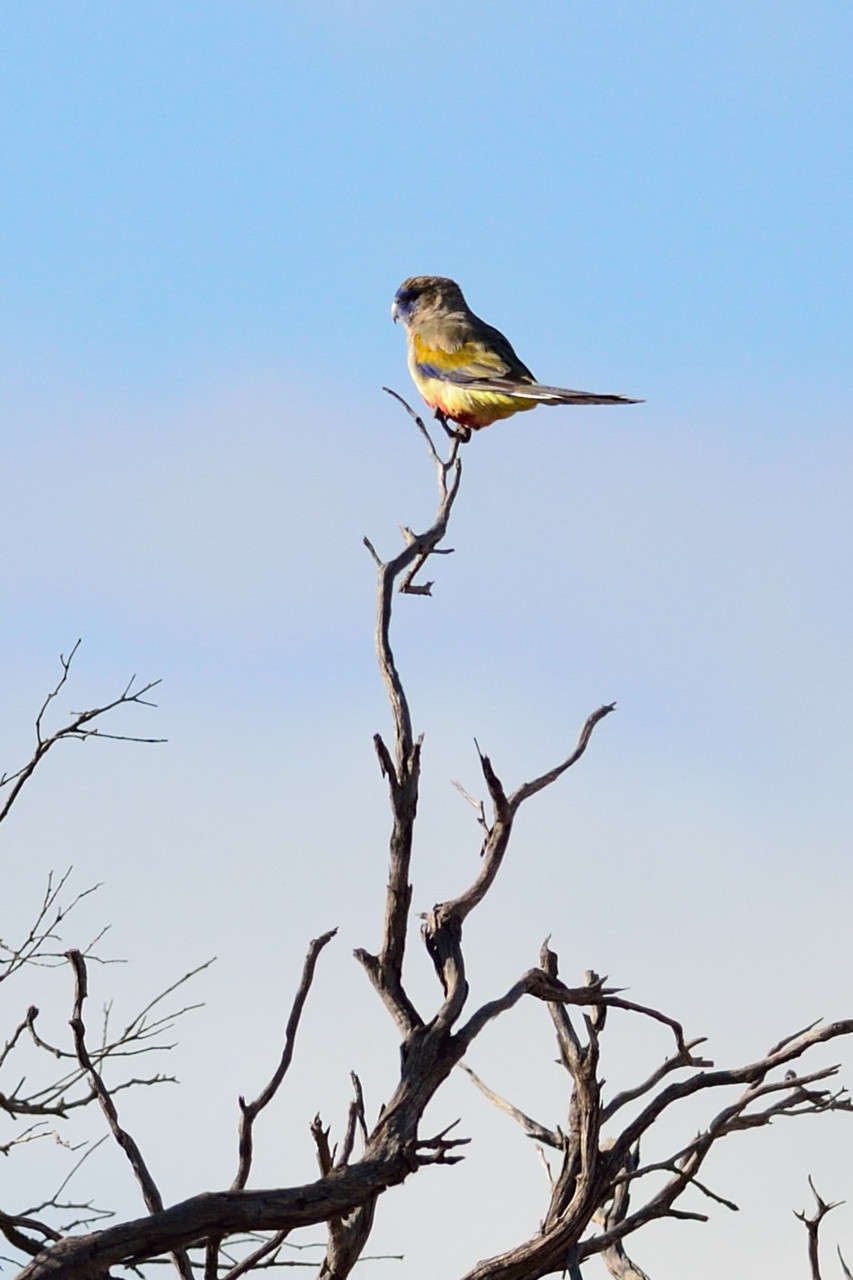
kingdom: Animalia
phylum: Chordata
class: Aves
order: Psittaciformes
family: Psittacidae
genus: Northiella
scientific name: Northiella haematogaster
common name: Bluebonnet
